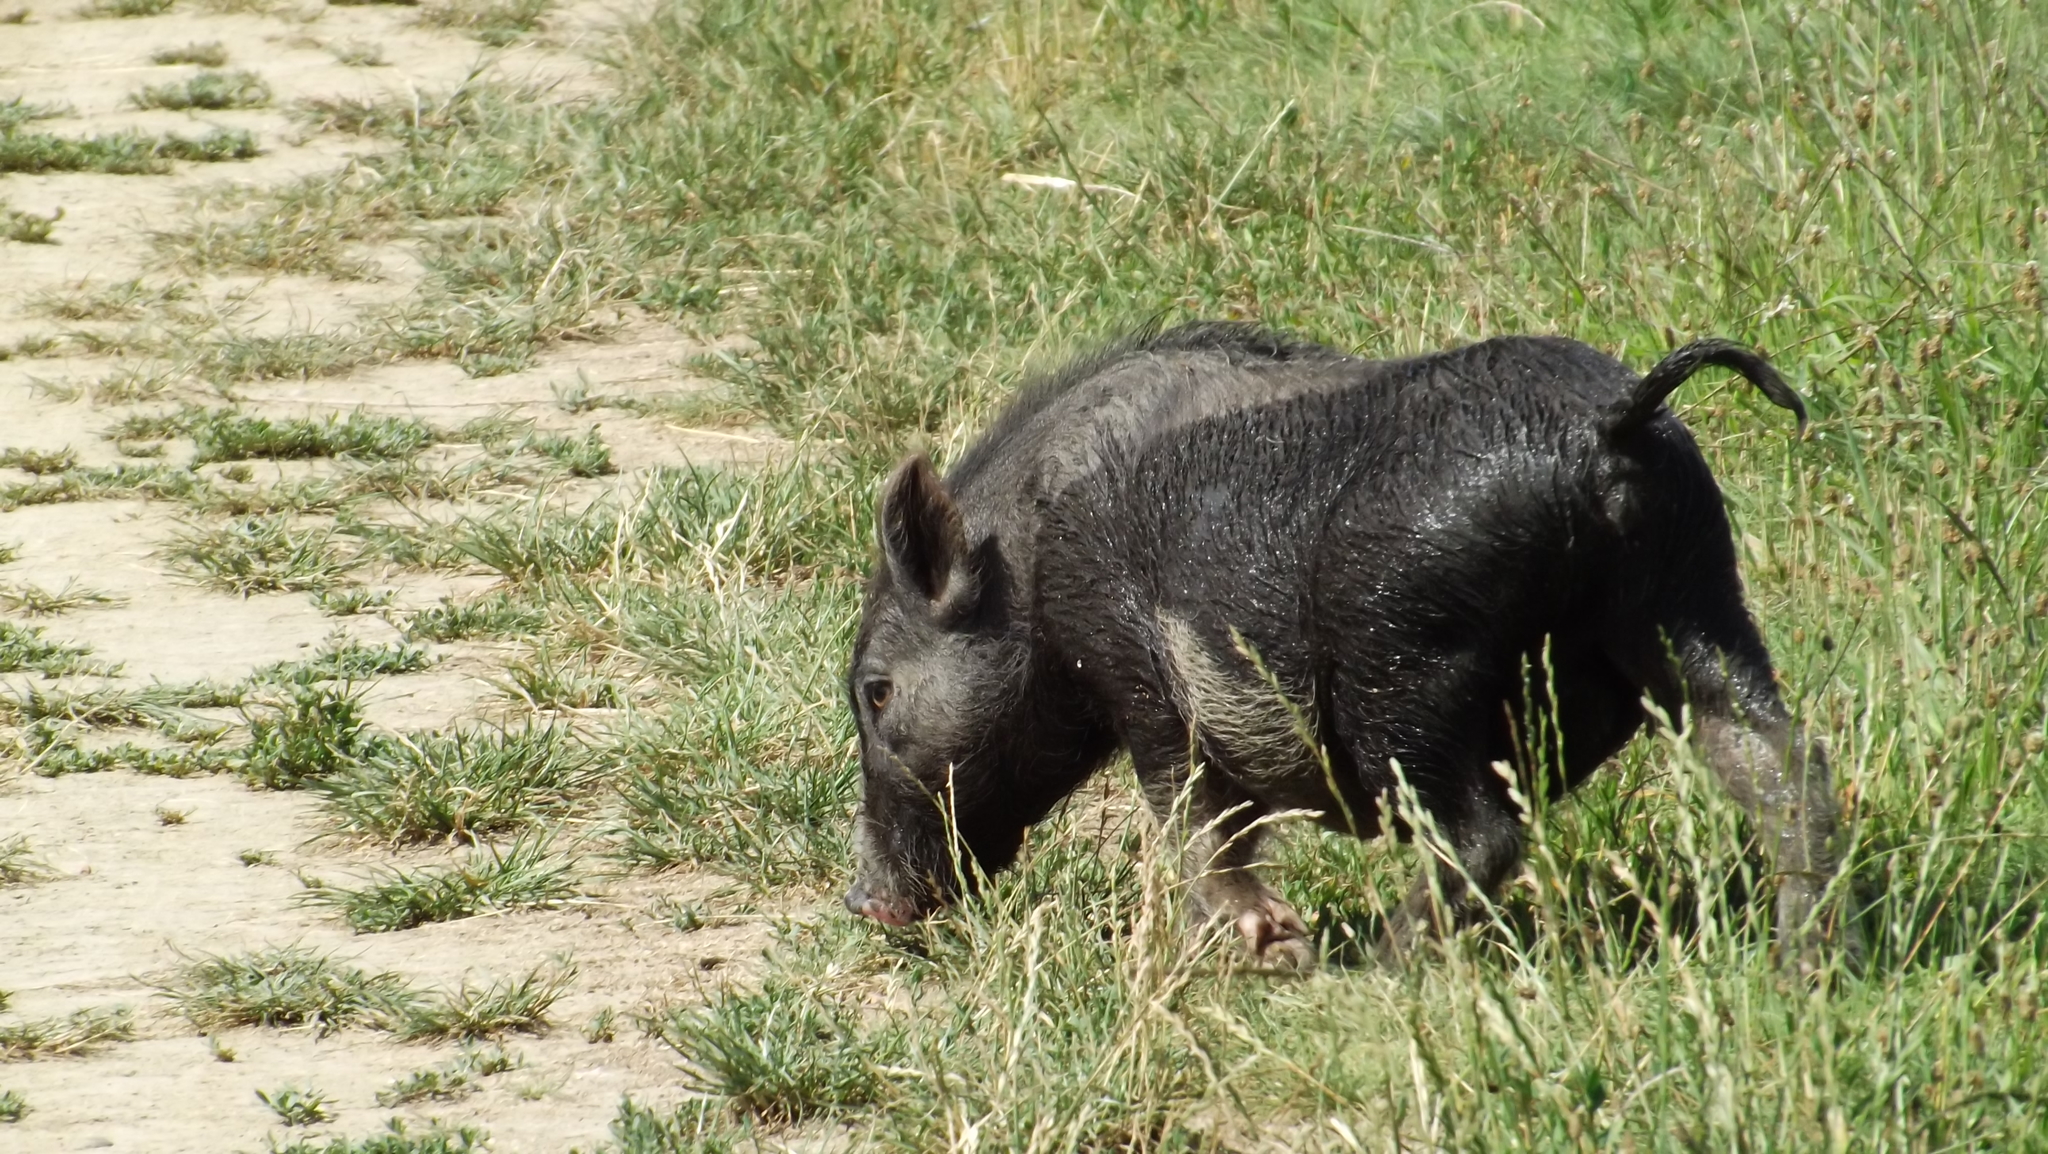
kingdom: Animalia
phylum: Chordata
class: Mammalia
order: Artiodactyla
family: Suidae
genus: Sus
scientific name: Sus scrofa
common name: Wild boar
